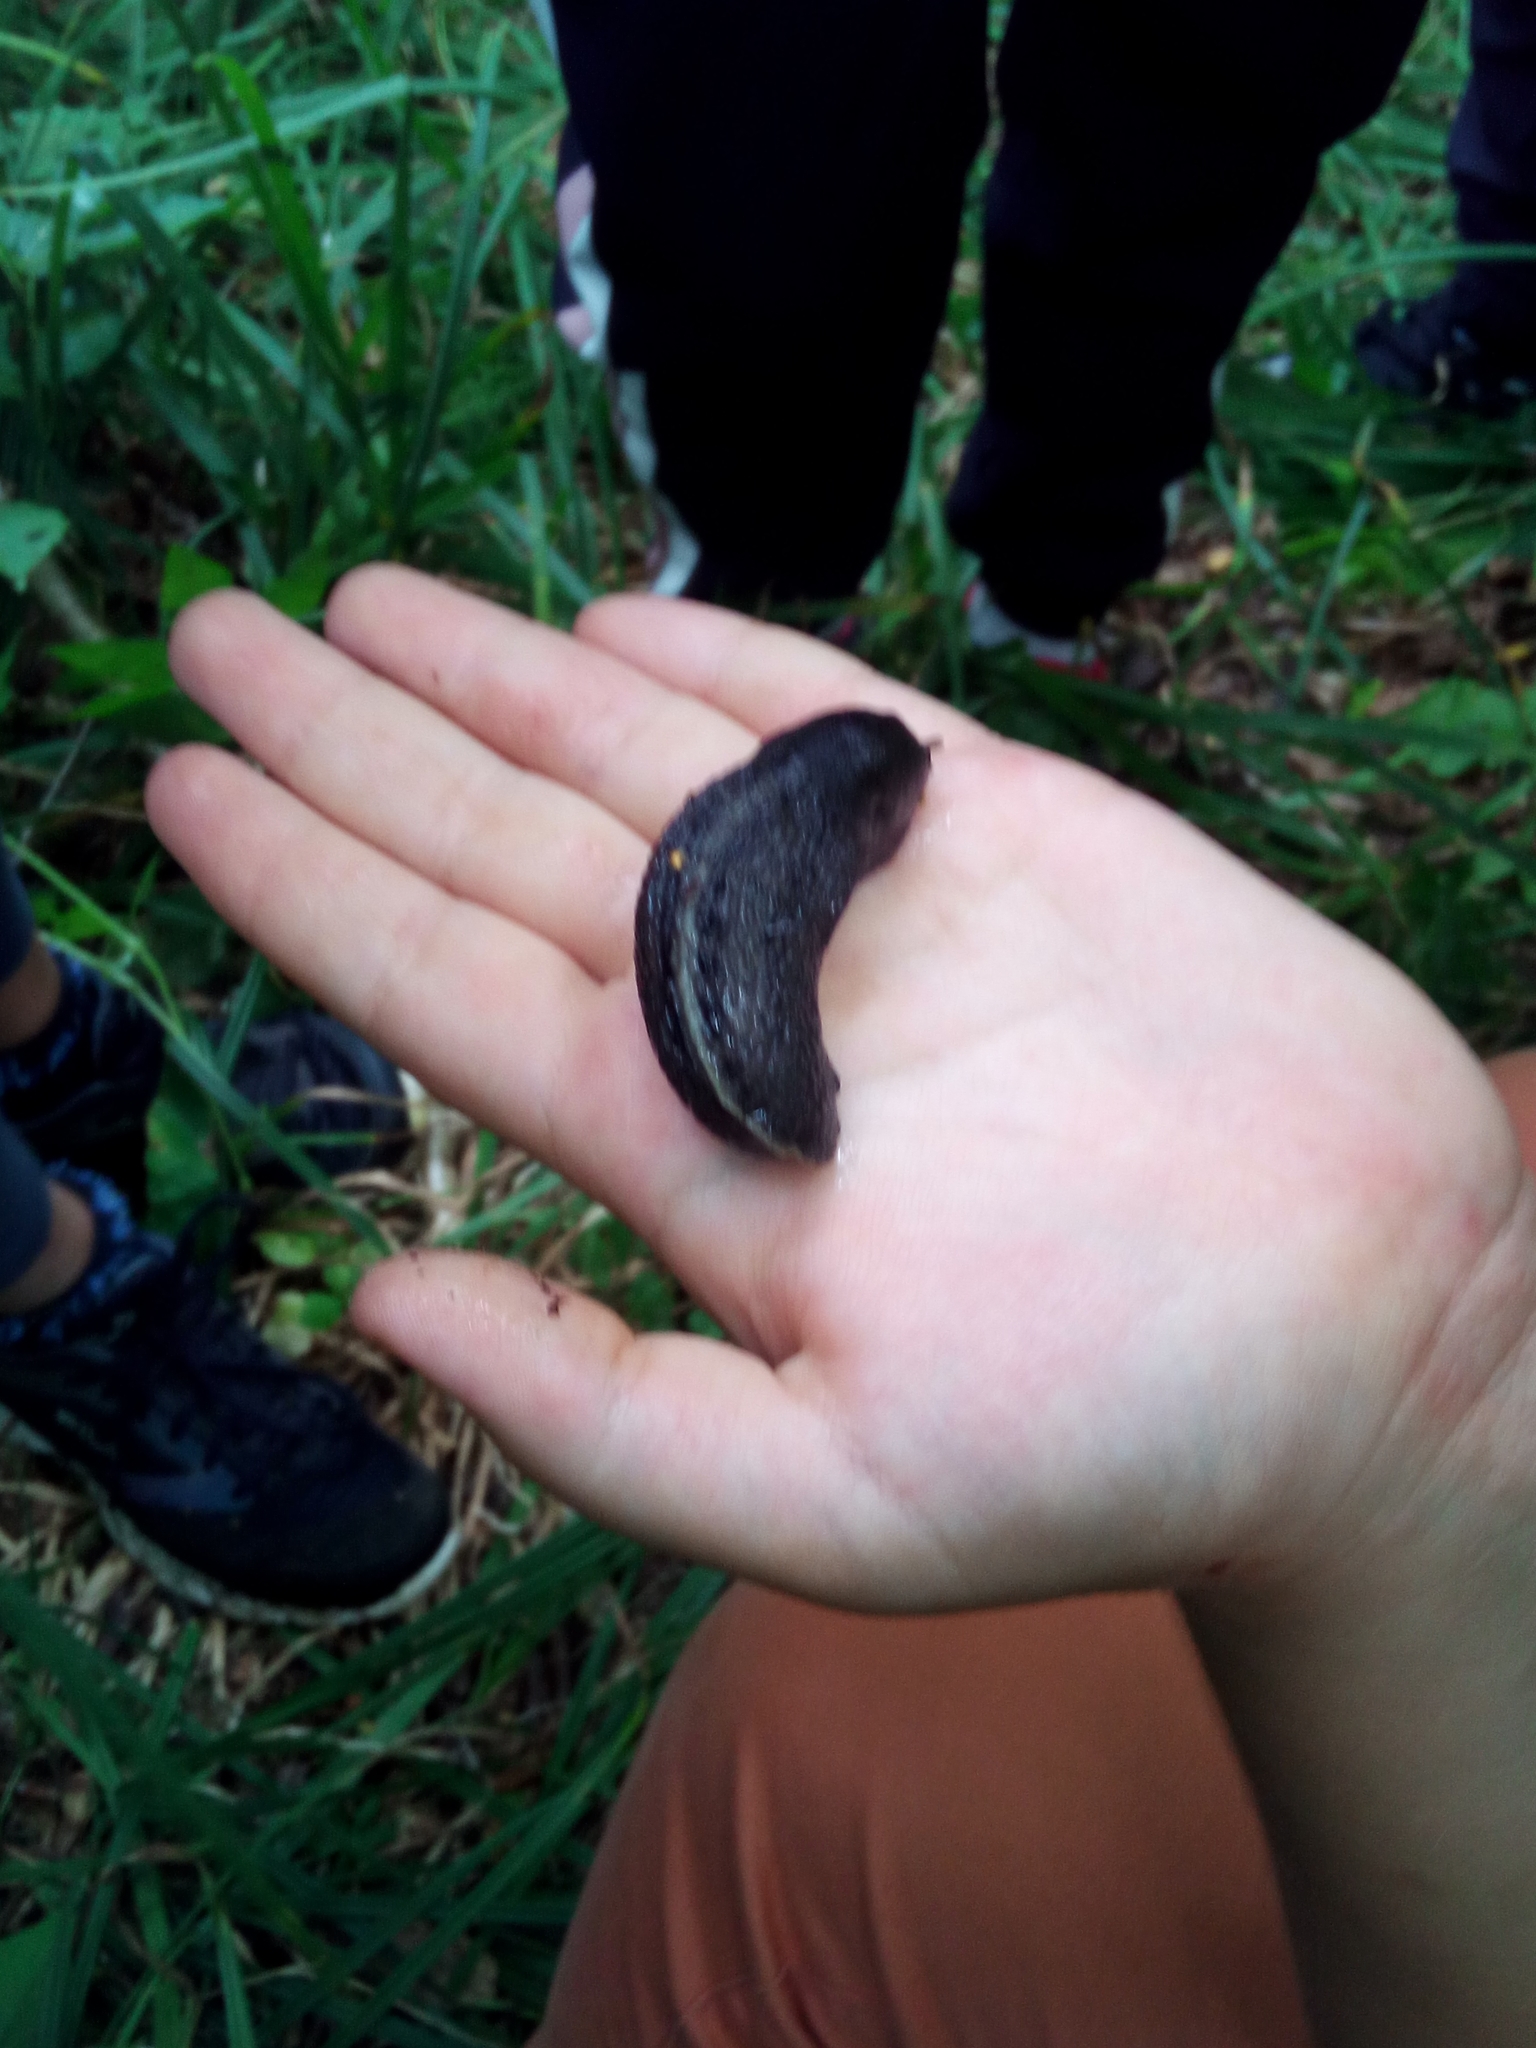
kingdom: Animalia
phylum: Mollusca
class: Gastropoda
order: Stylommatophora
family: Limacidae
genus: Limax
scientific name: Limax cinereoniger
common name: Ash-black slug
